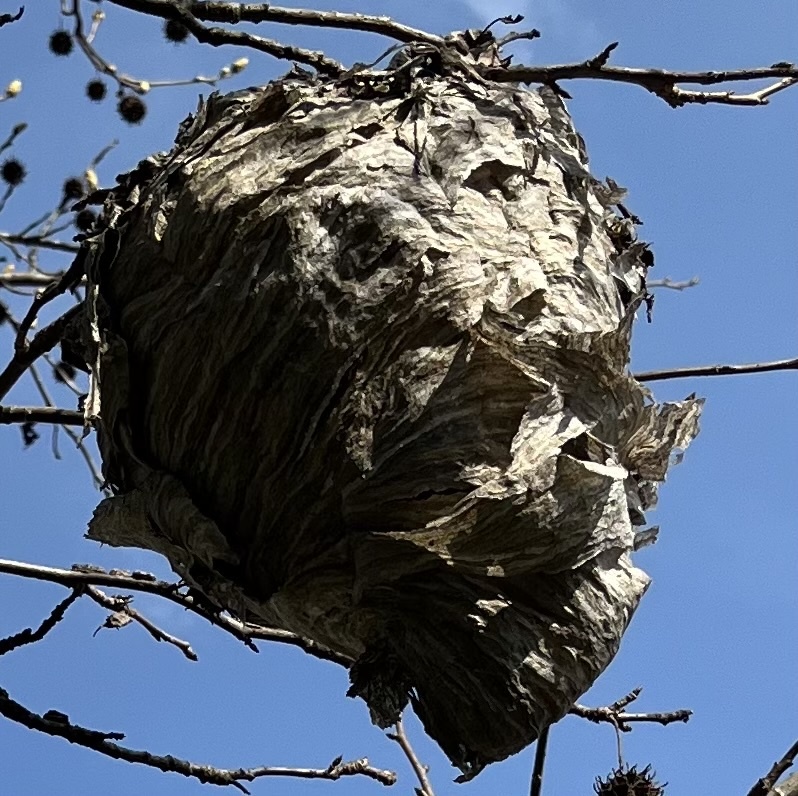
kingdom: Animalia
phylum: Arthropoda
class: Insecta
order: Hymenoptera
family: Vespidae
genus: Dolichovespula
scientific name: Dolichovespula
